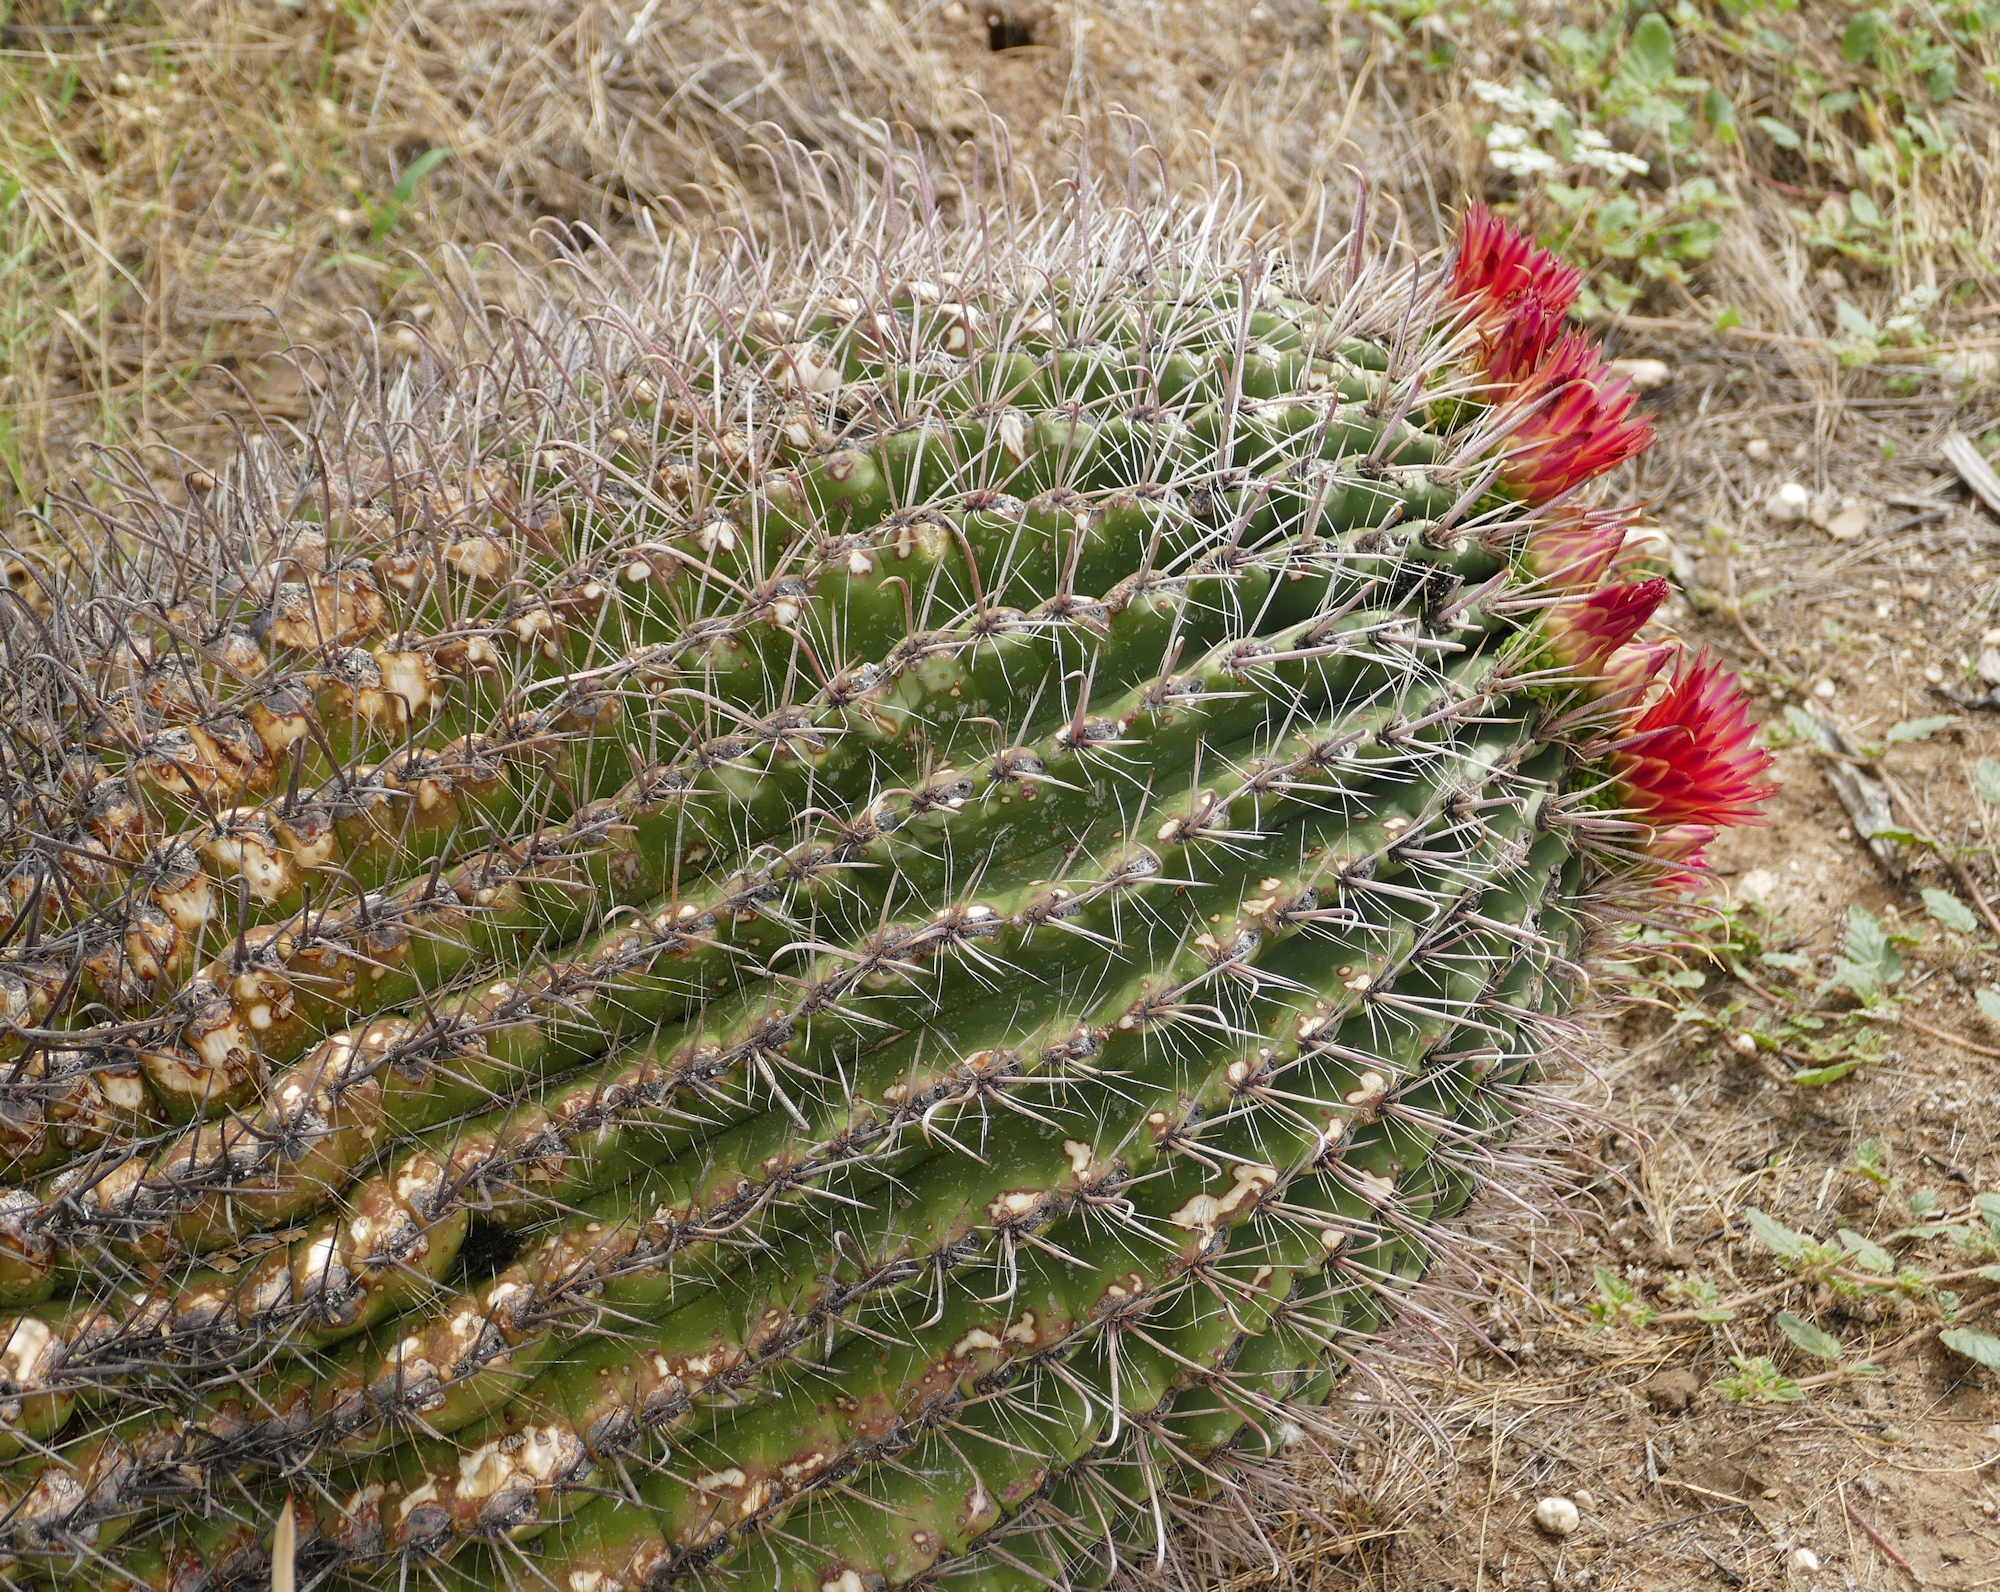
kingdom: Plantae
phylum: Tracheophyta
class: Magnoliopsida
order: Caryophyllales
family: Cactaceae
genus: Ferocactus
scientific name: Ferocactus wislizeni
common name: Candy barrel cactus
